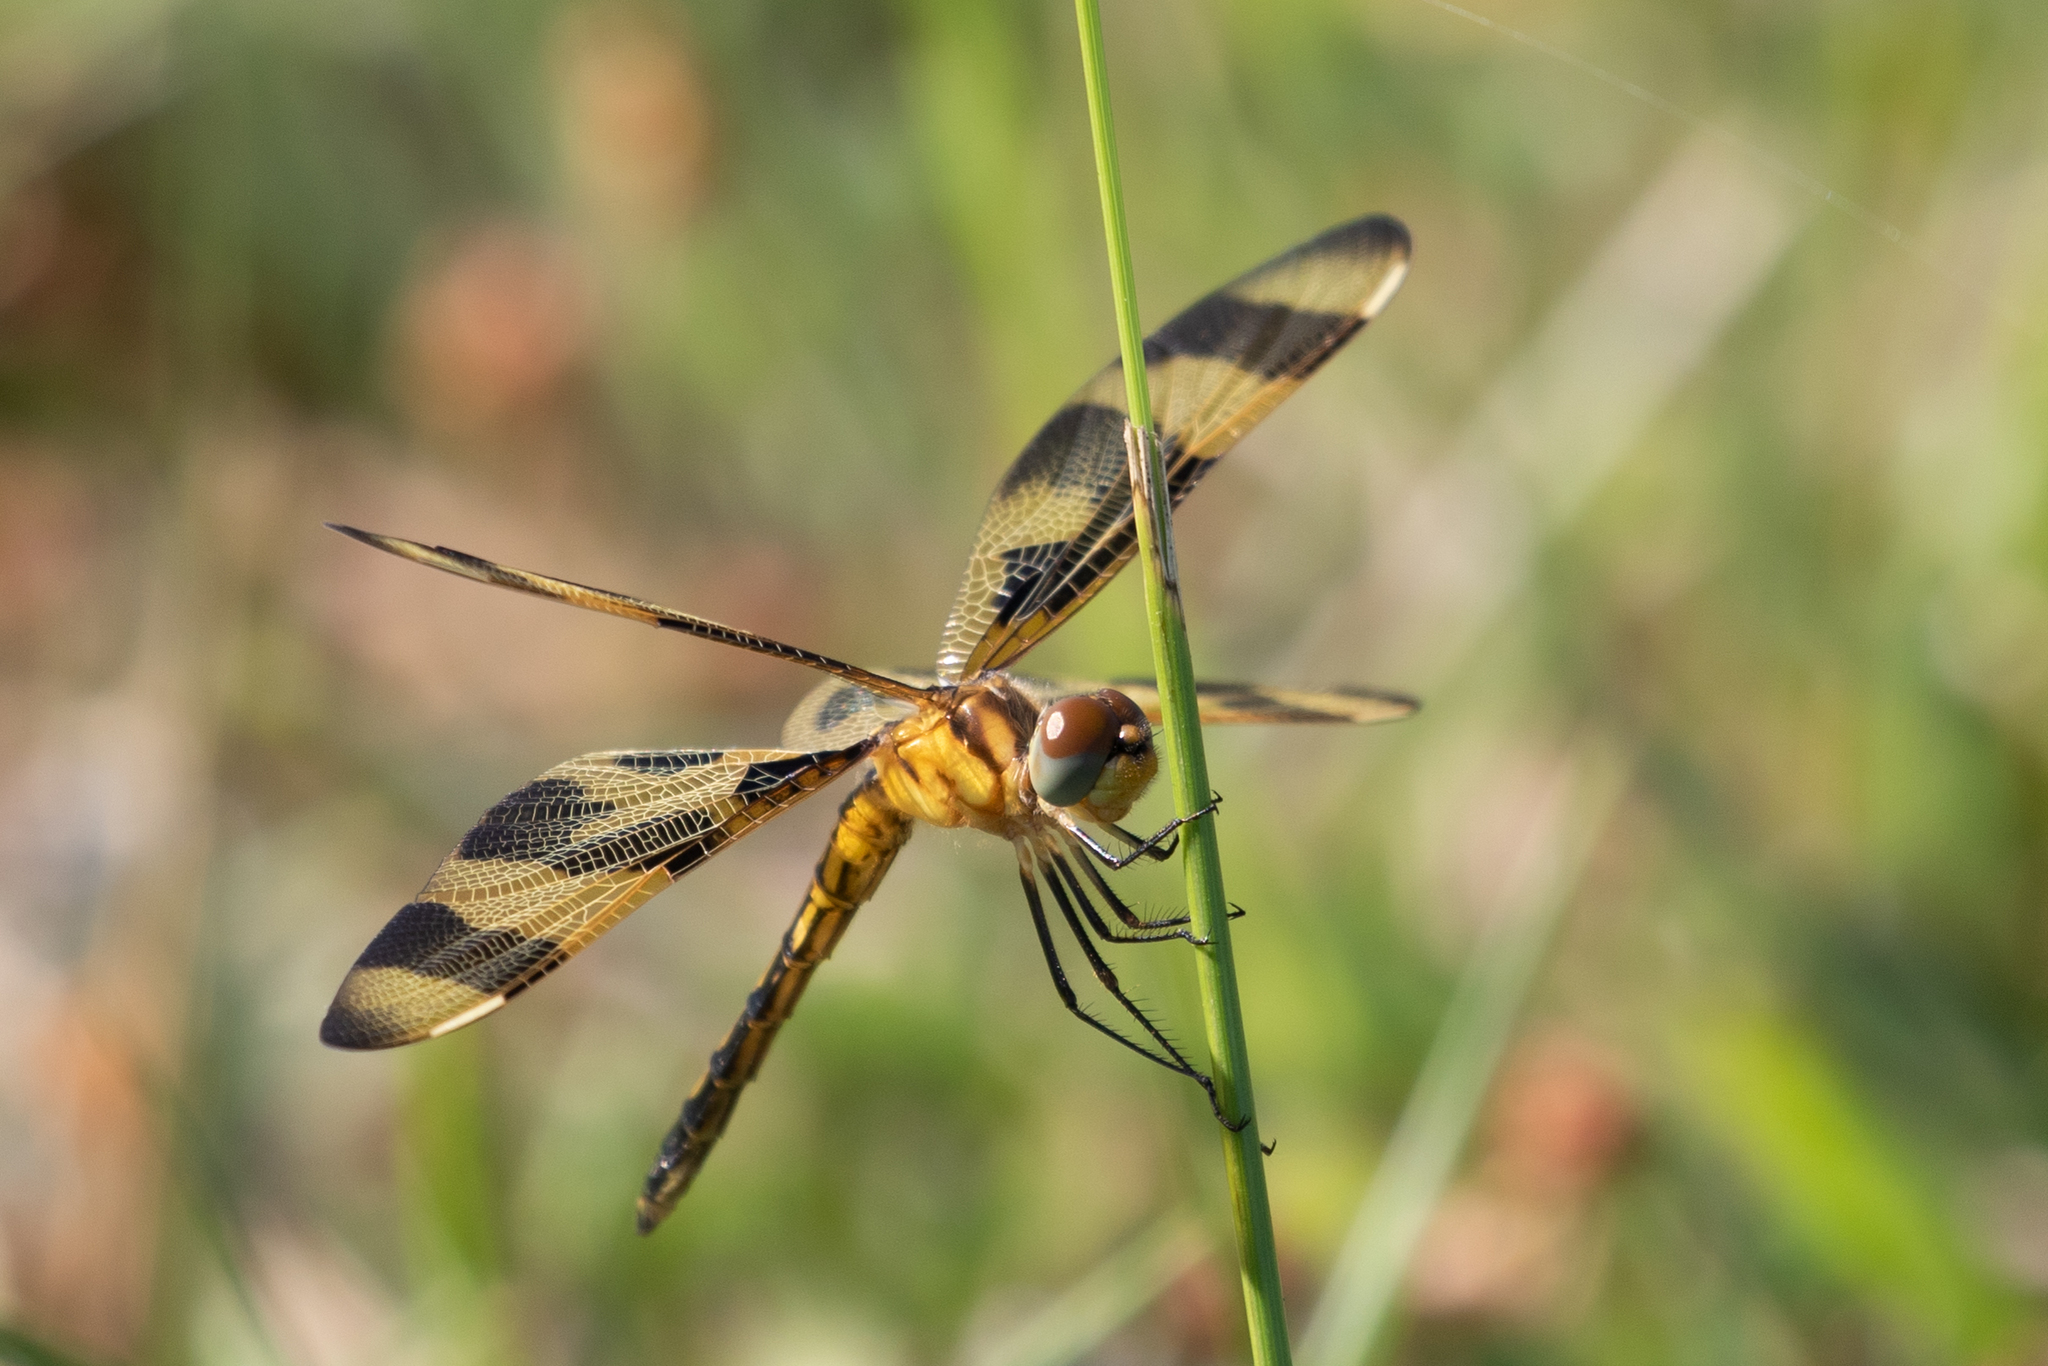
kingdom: Animalia
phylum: Arthropoda
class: Insecta
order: Odonata
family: Libellulidae
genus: Celithemis
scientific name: Celithemis eponina
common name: Halloween pennant
